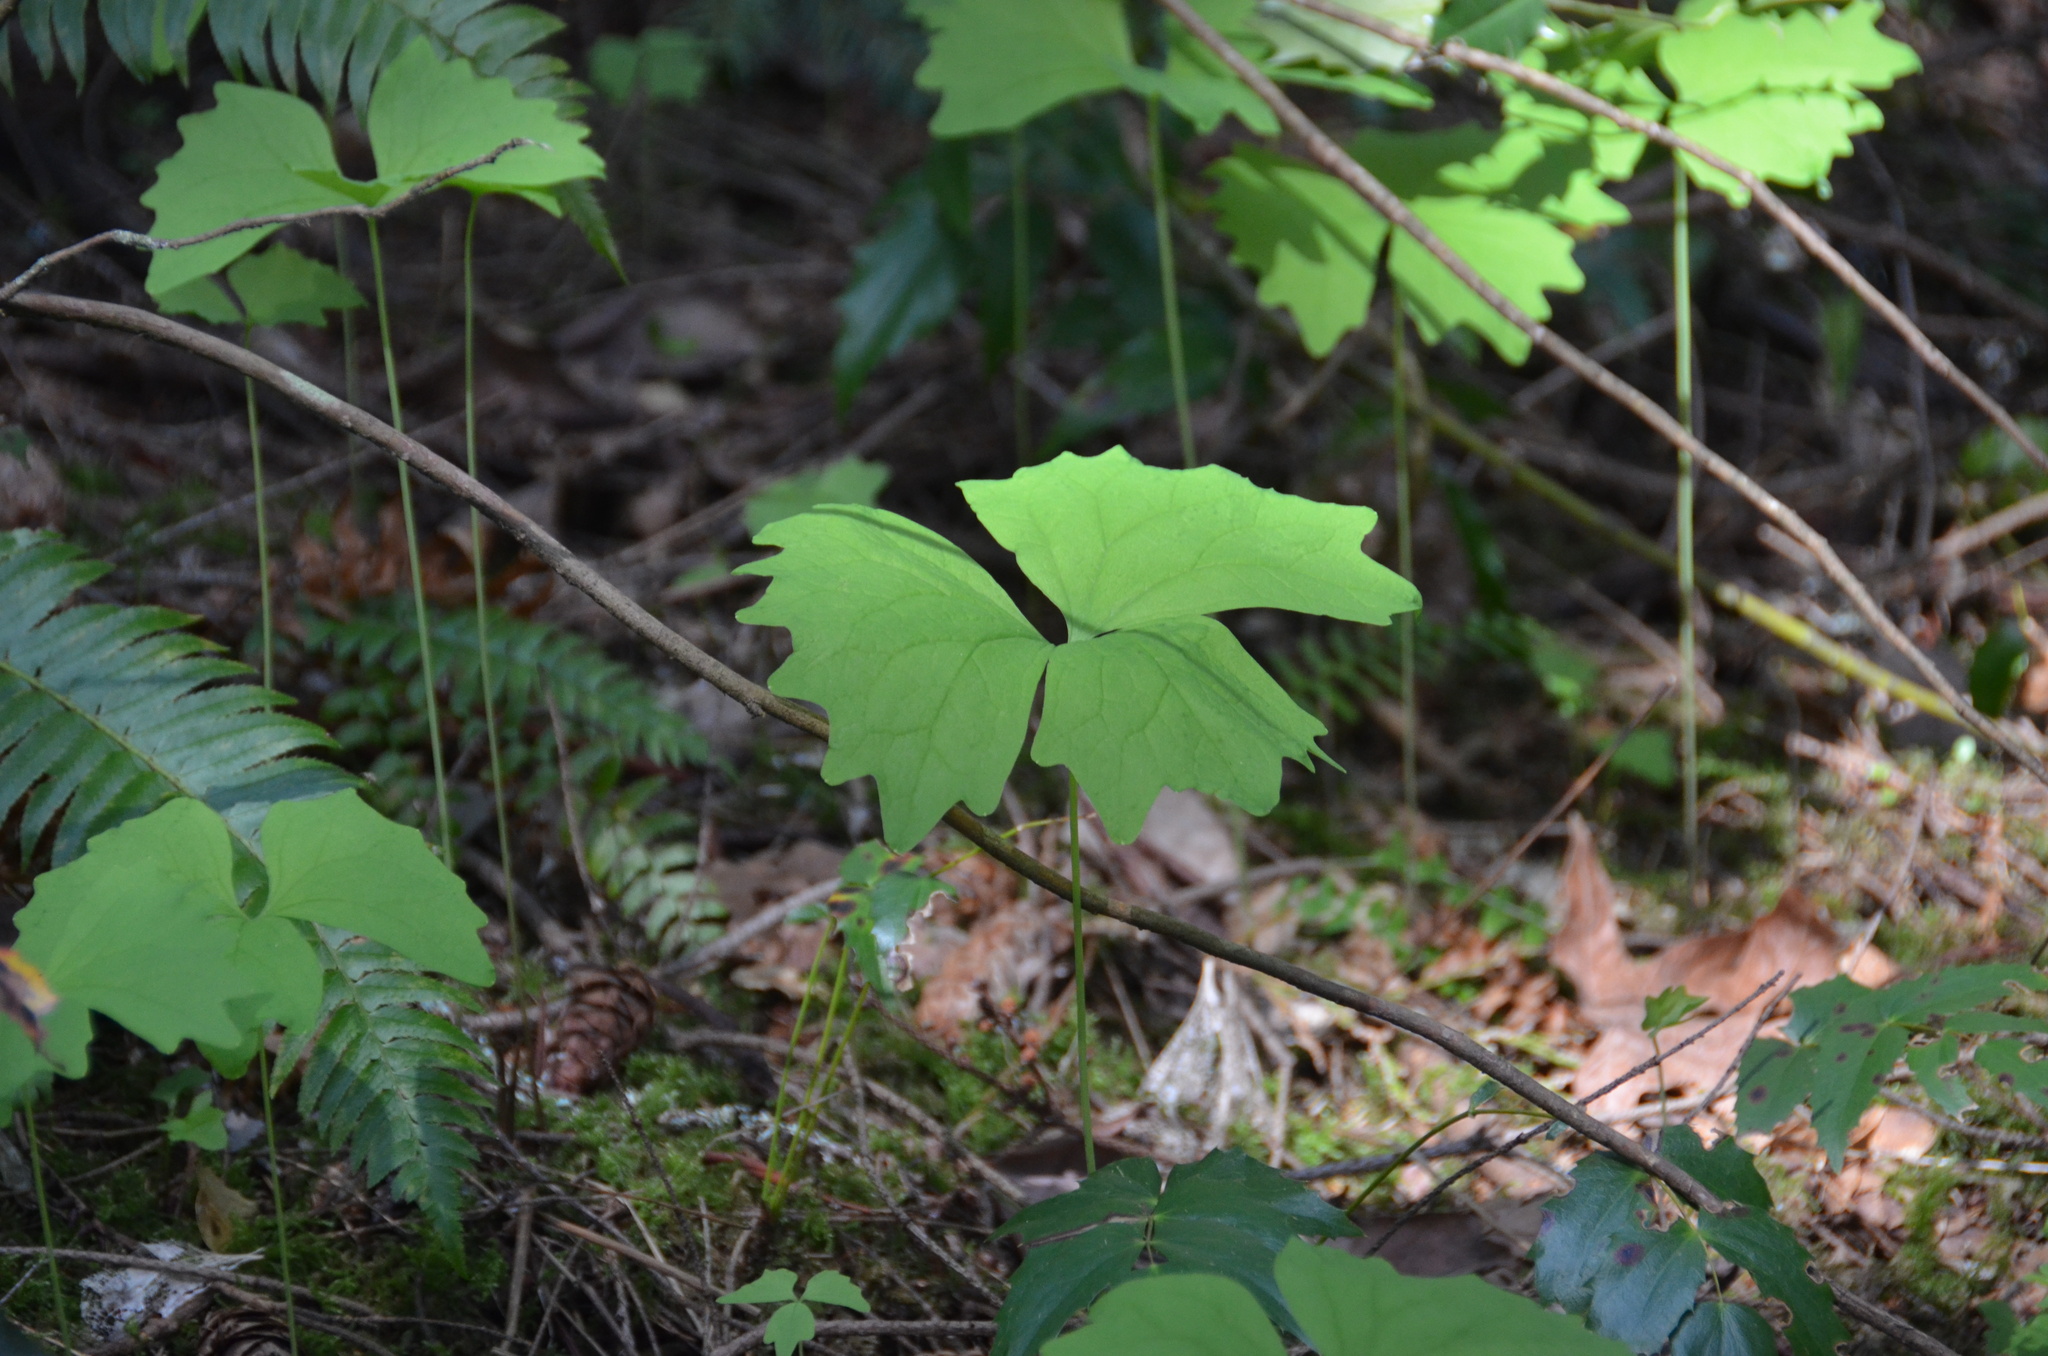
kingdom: Plantae
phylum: Tracheophyta
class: Magnoliopsida
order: Ranunculales
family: Berberidaceae
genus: Achlys
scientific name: Achlys triphylla
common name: Vanilla-leaf
